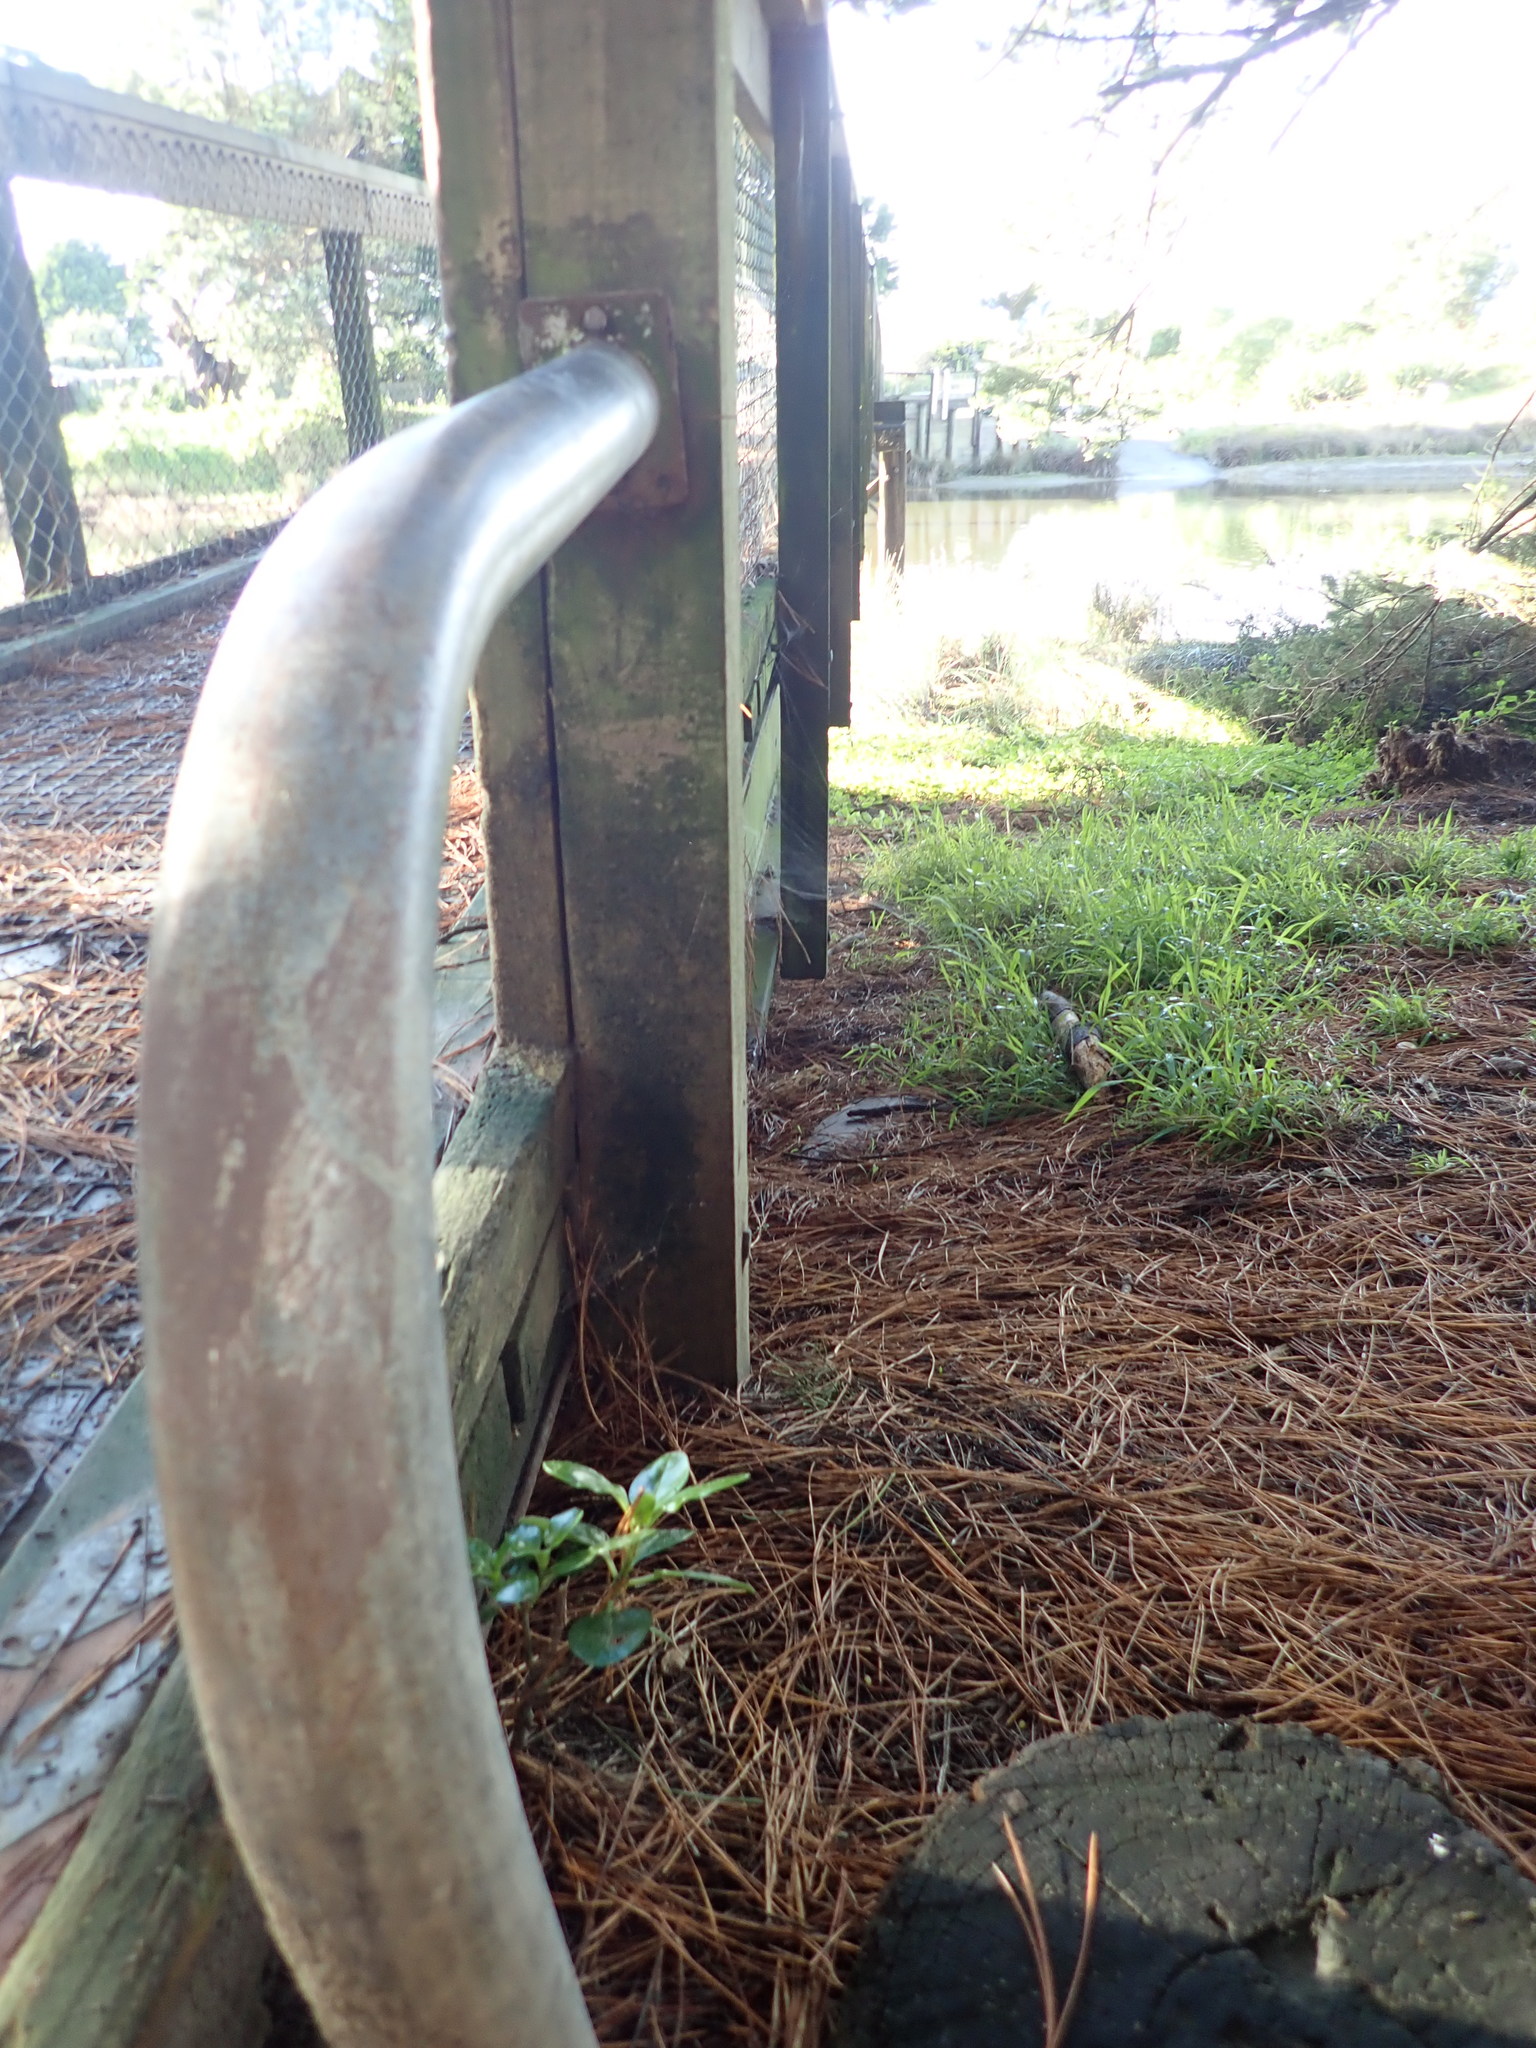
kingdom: Plantae
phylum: Tracheophyta
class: Magnoliopsida
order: Gentianales
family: Rubiaceae
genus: Coprosma
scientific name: Coprosma repens
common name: Tree bedstraw
